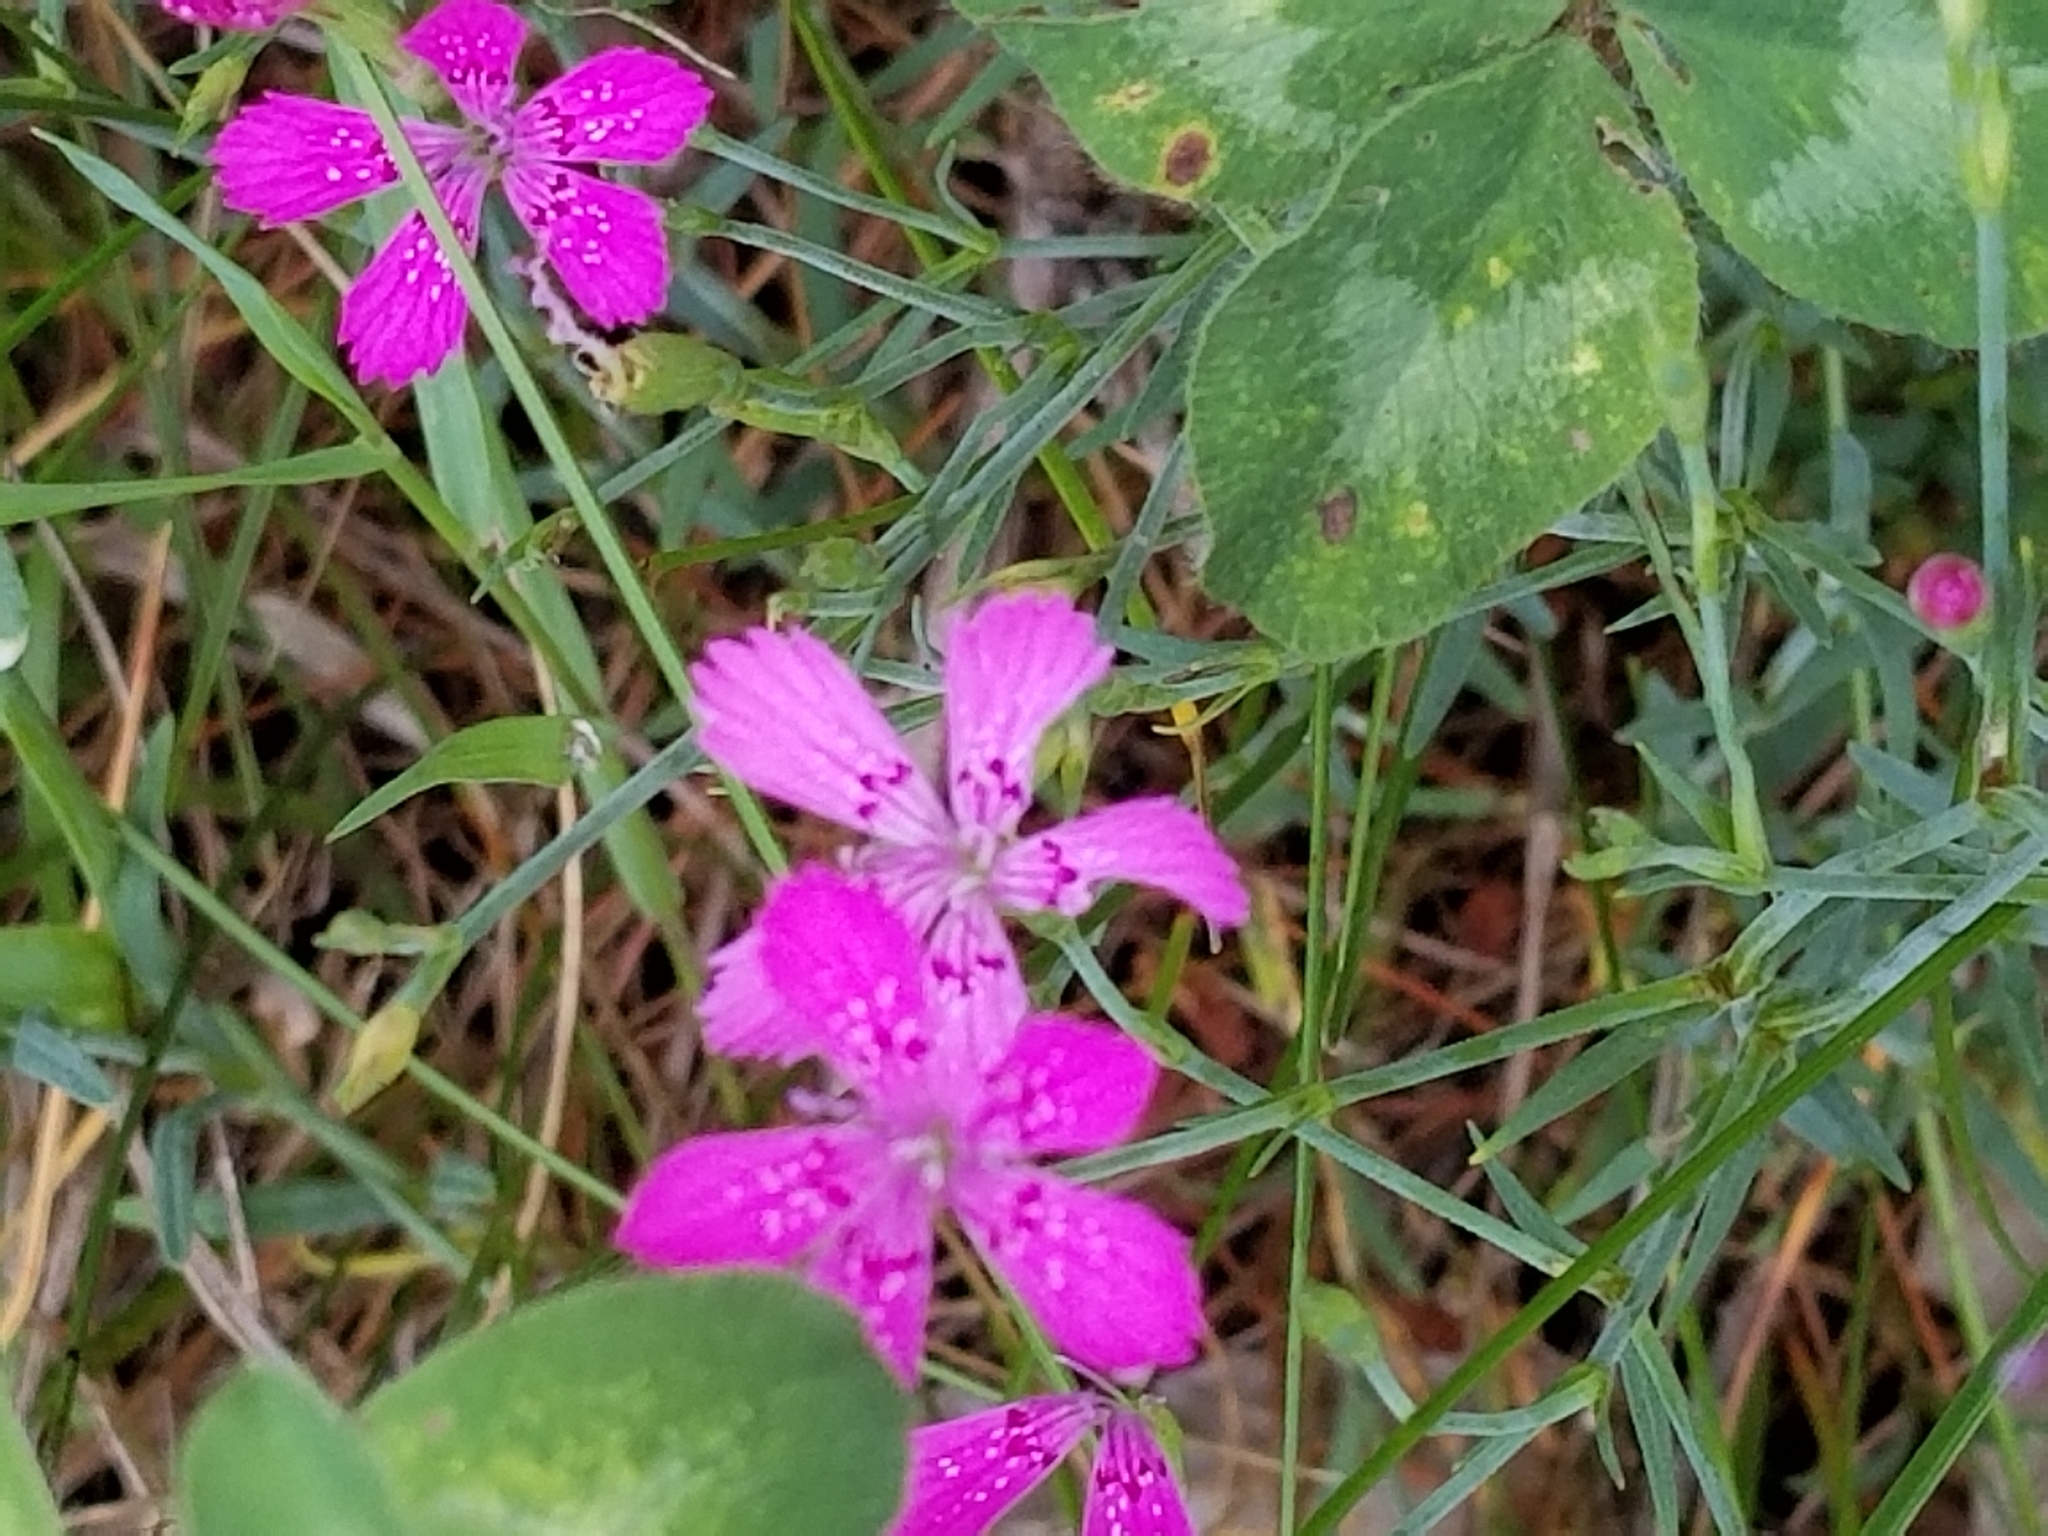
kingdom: Plantae
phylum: Tracheophyta
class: Magnoliopsida
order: Caryophyllales
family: Caryophyllaceae
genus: Dianthus
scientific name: Dianthus deltoides
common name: Maiden pink
